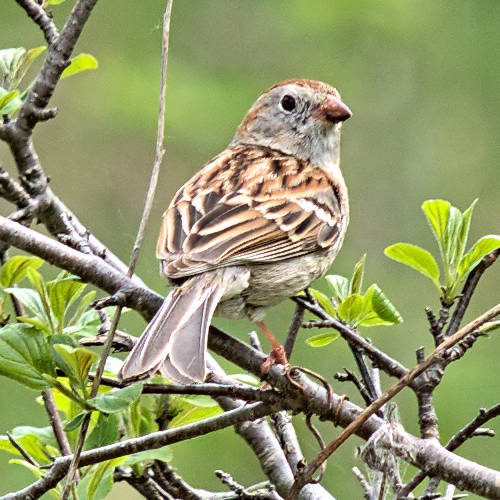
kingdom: Animalia
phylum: Chordata
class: Aves
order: Passeriformes
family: Passerellidae
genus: Spizella
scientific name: Spizella pusilla
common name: Field sparrow
